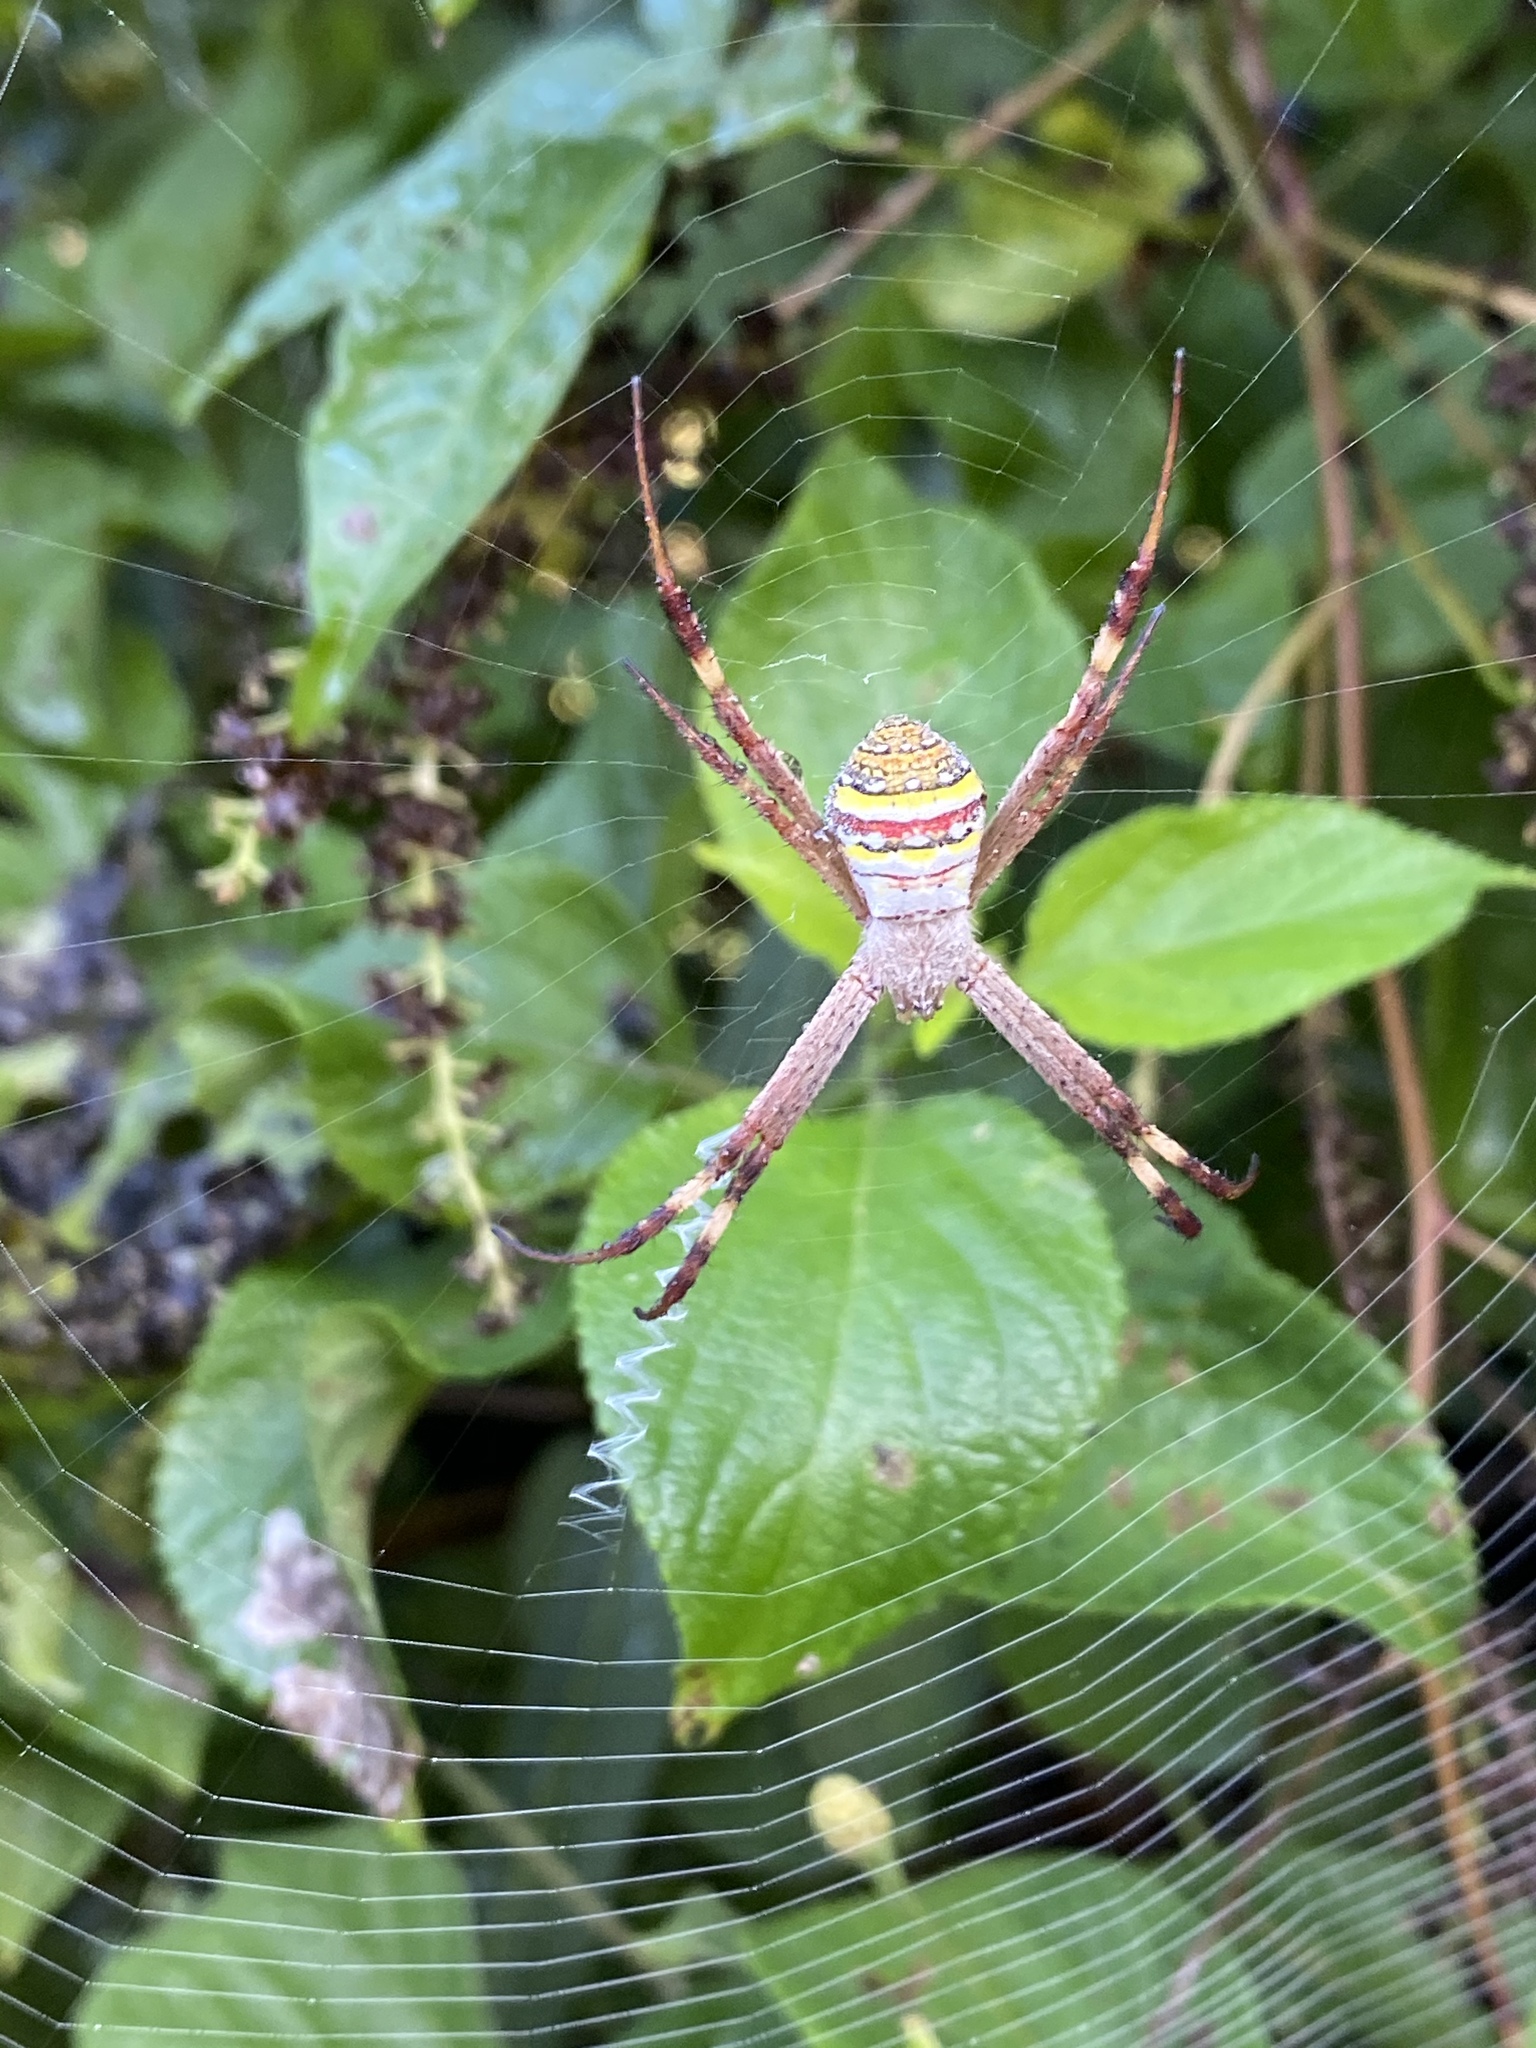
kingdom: Animalia
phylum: Arthropoda
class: Arachnida
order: Araneae
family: Araneidae
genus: Argiope
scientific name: Argiope keyserlingi
